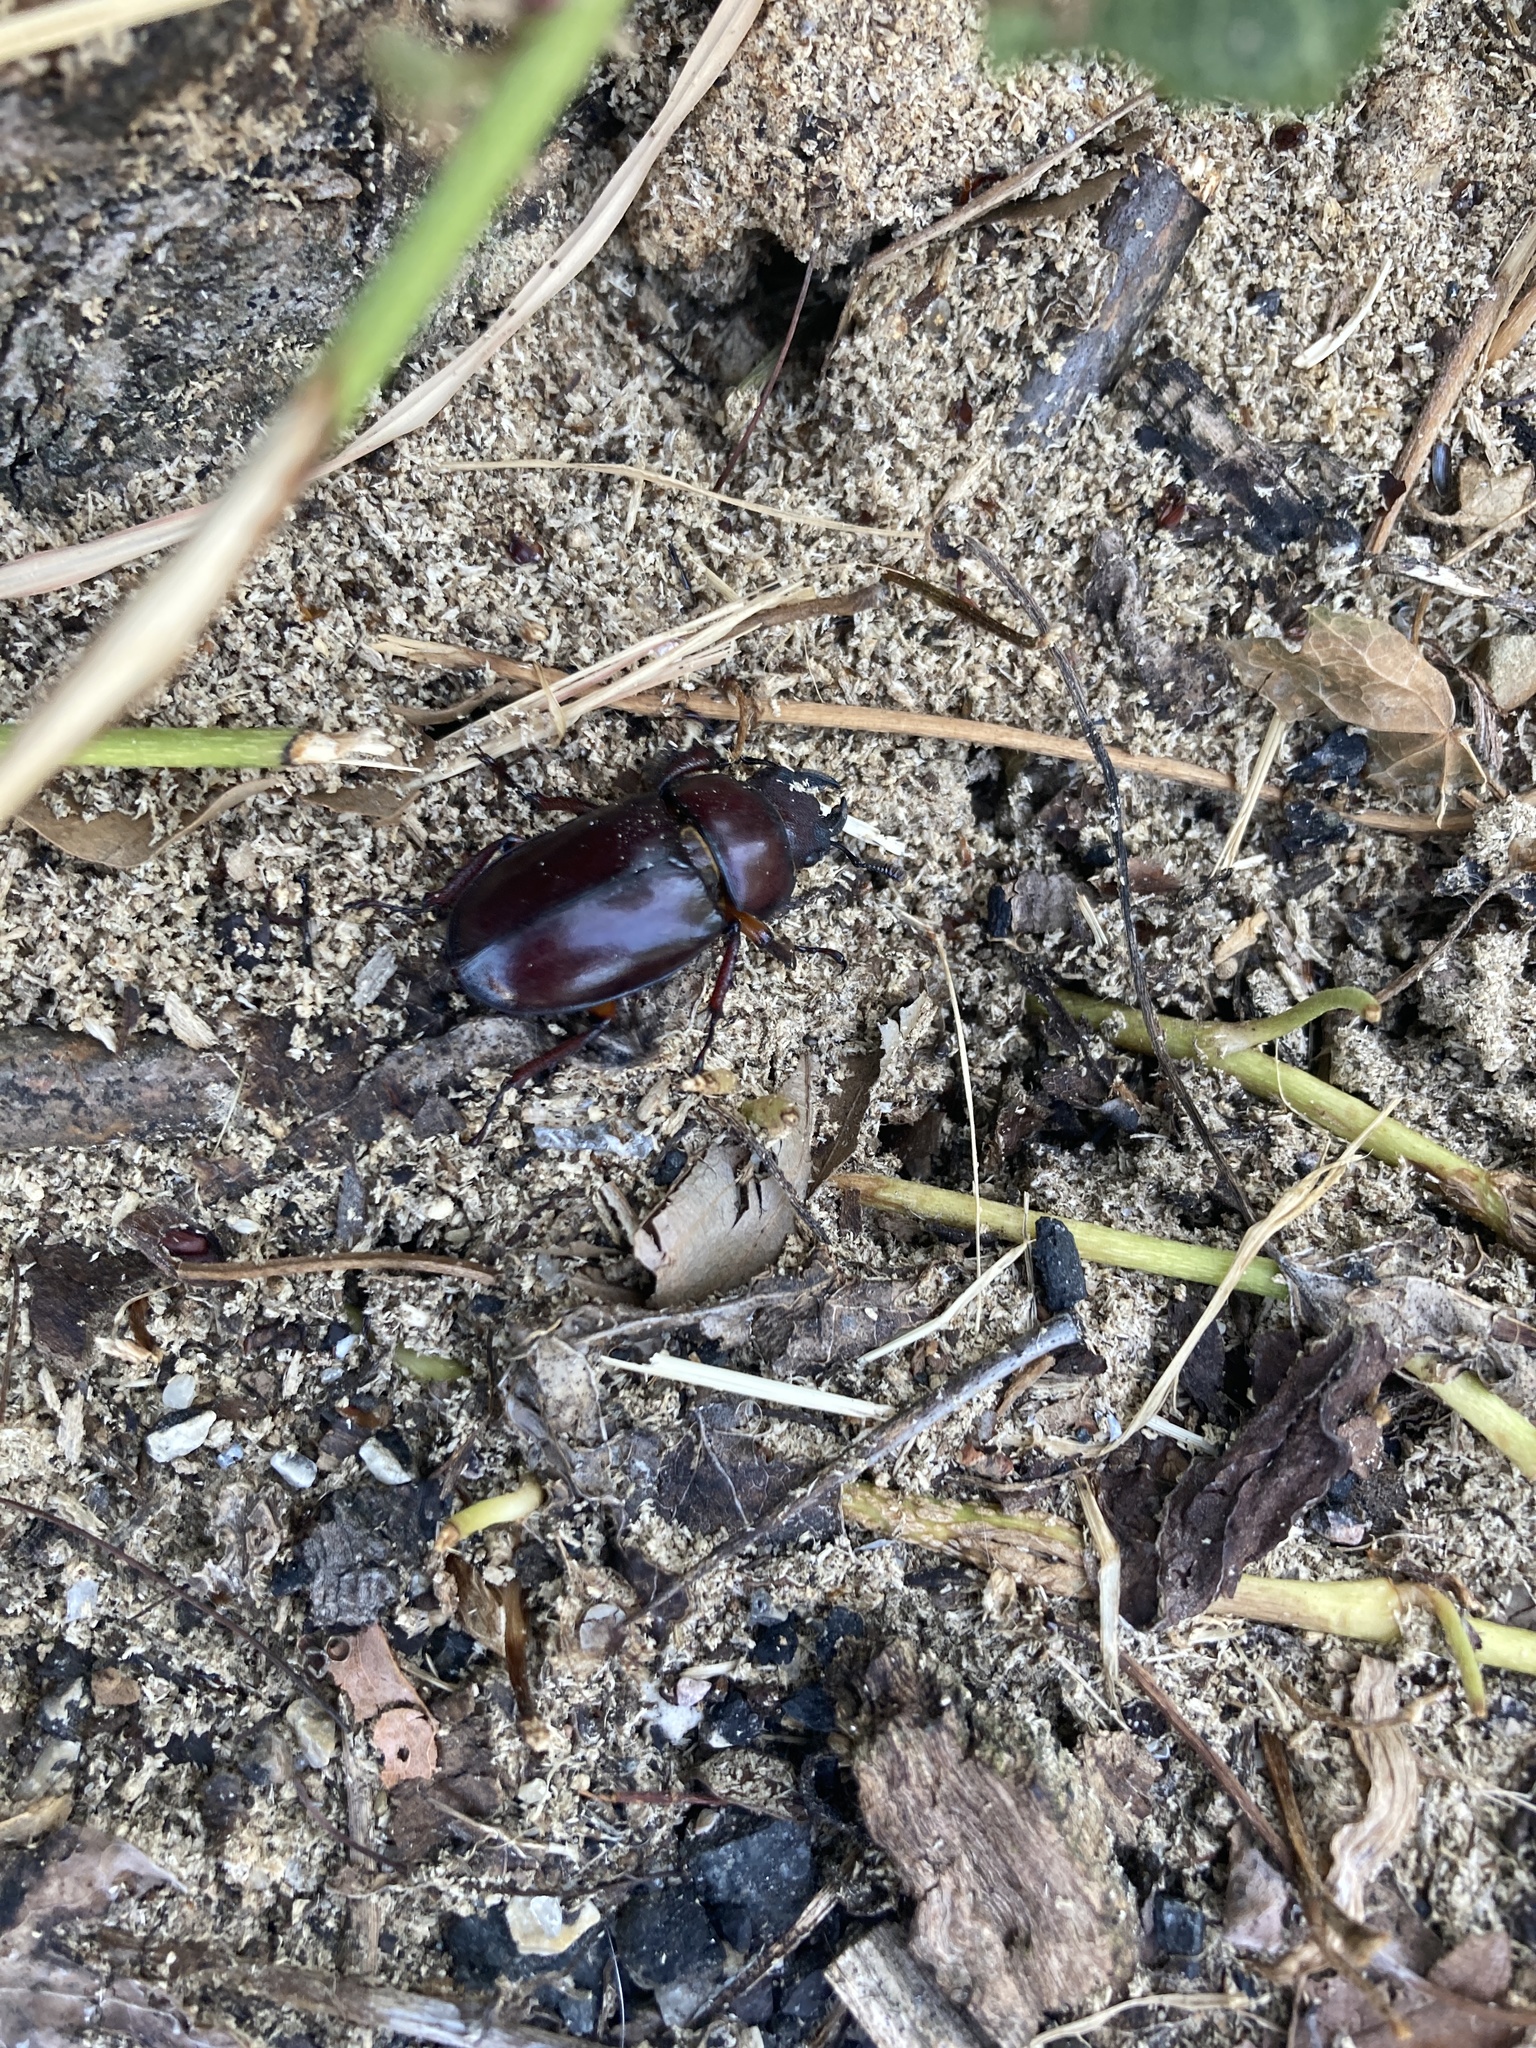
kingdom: Animalia
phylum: Arthropoda
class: Insecta
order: Coleoptera
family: Lucanidae
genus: Lucanus
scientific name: Lucanus capreolus
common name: Stag beetle
